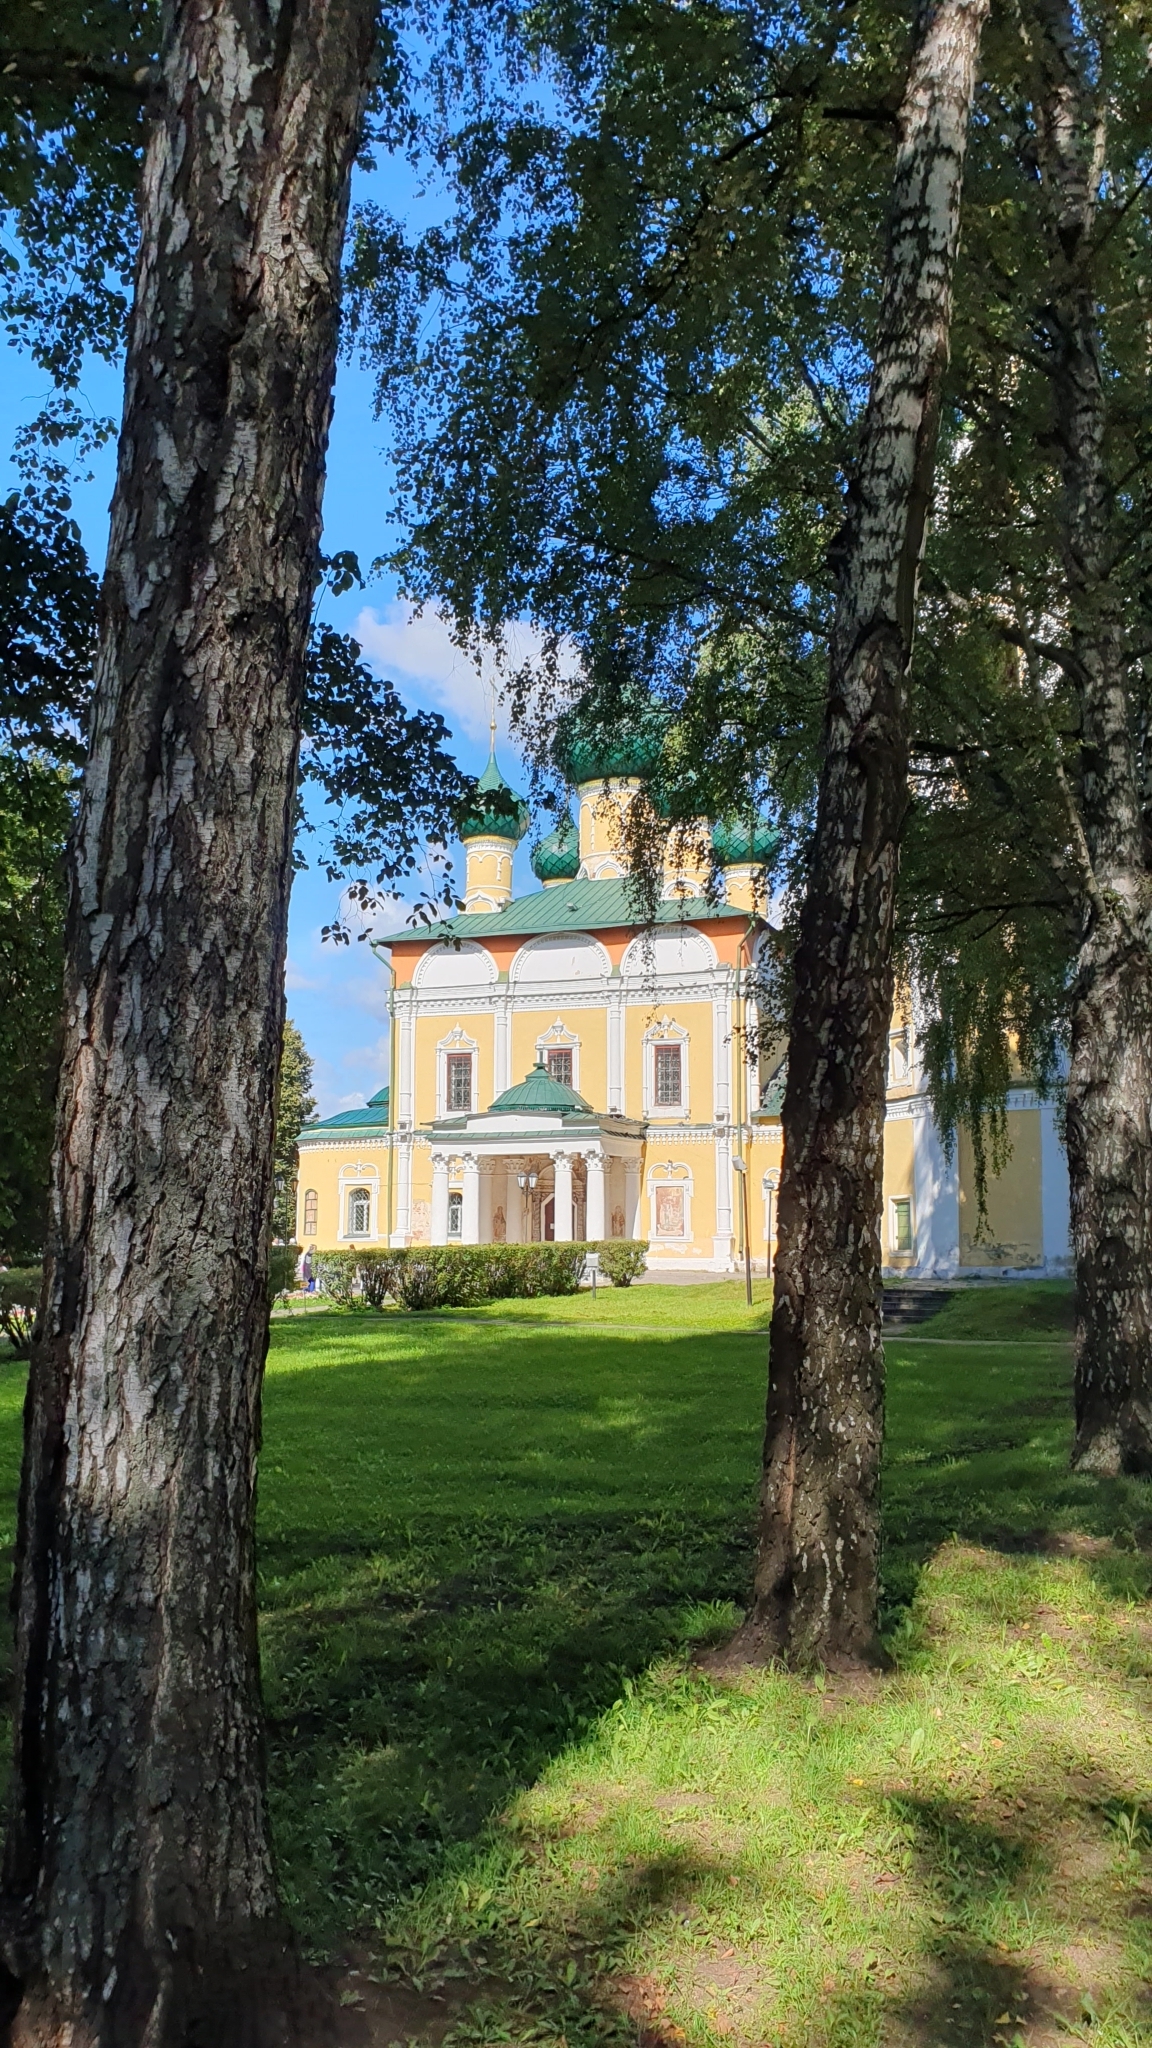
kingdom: Plantae
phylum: Tracheophyta
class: Magnoliopsida
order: Fagales
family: Betulaceae
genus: Betula
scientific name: Betula pendula
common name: Silver birch
